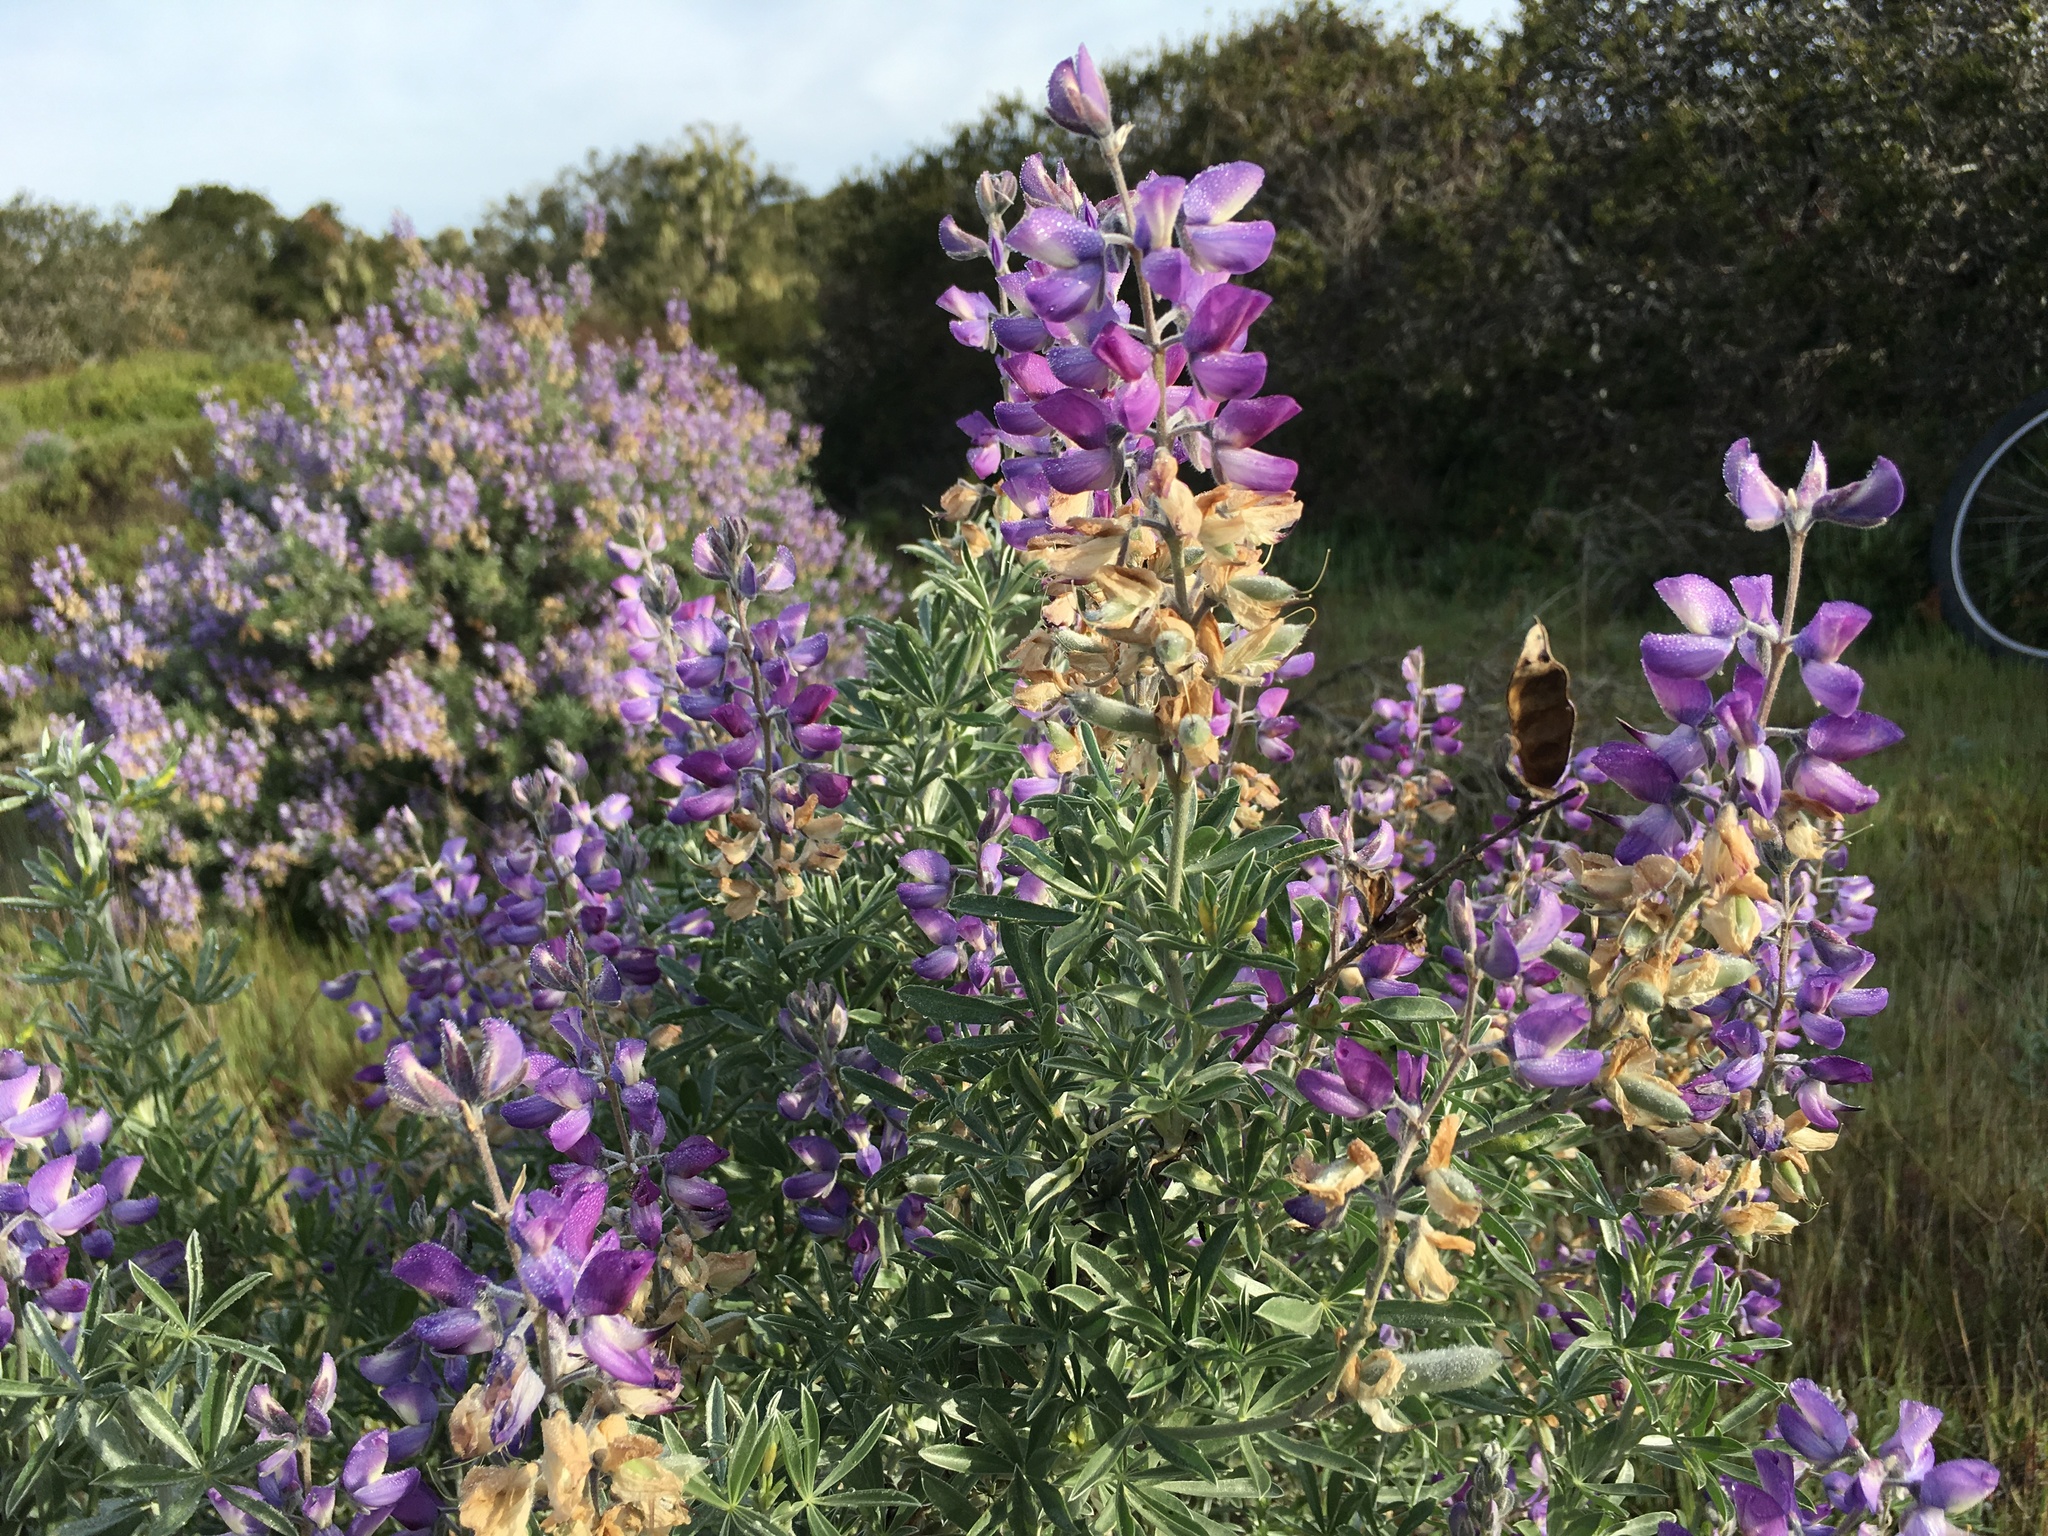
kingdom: Plantae
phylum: Tracheophyta
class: Magnoliopsida
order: Fabales
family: Fabaceae
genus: Lupinus
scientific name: Lupinus chamissonis
